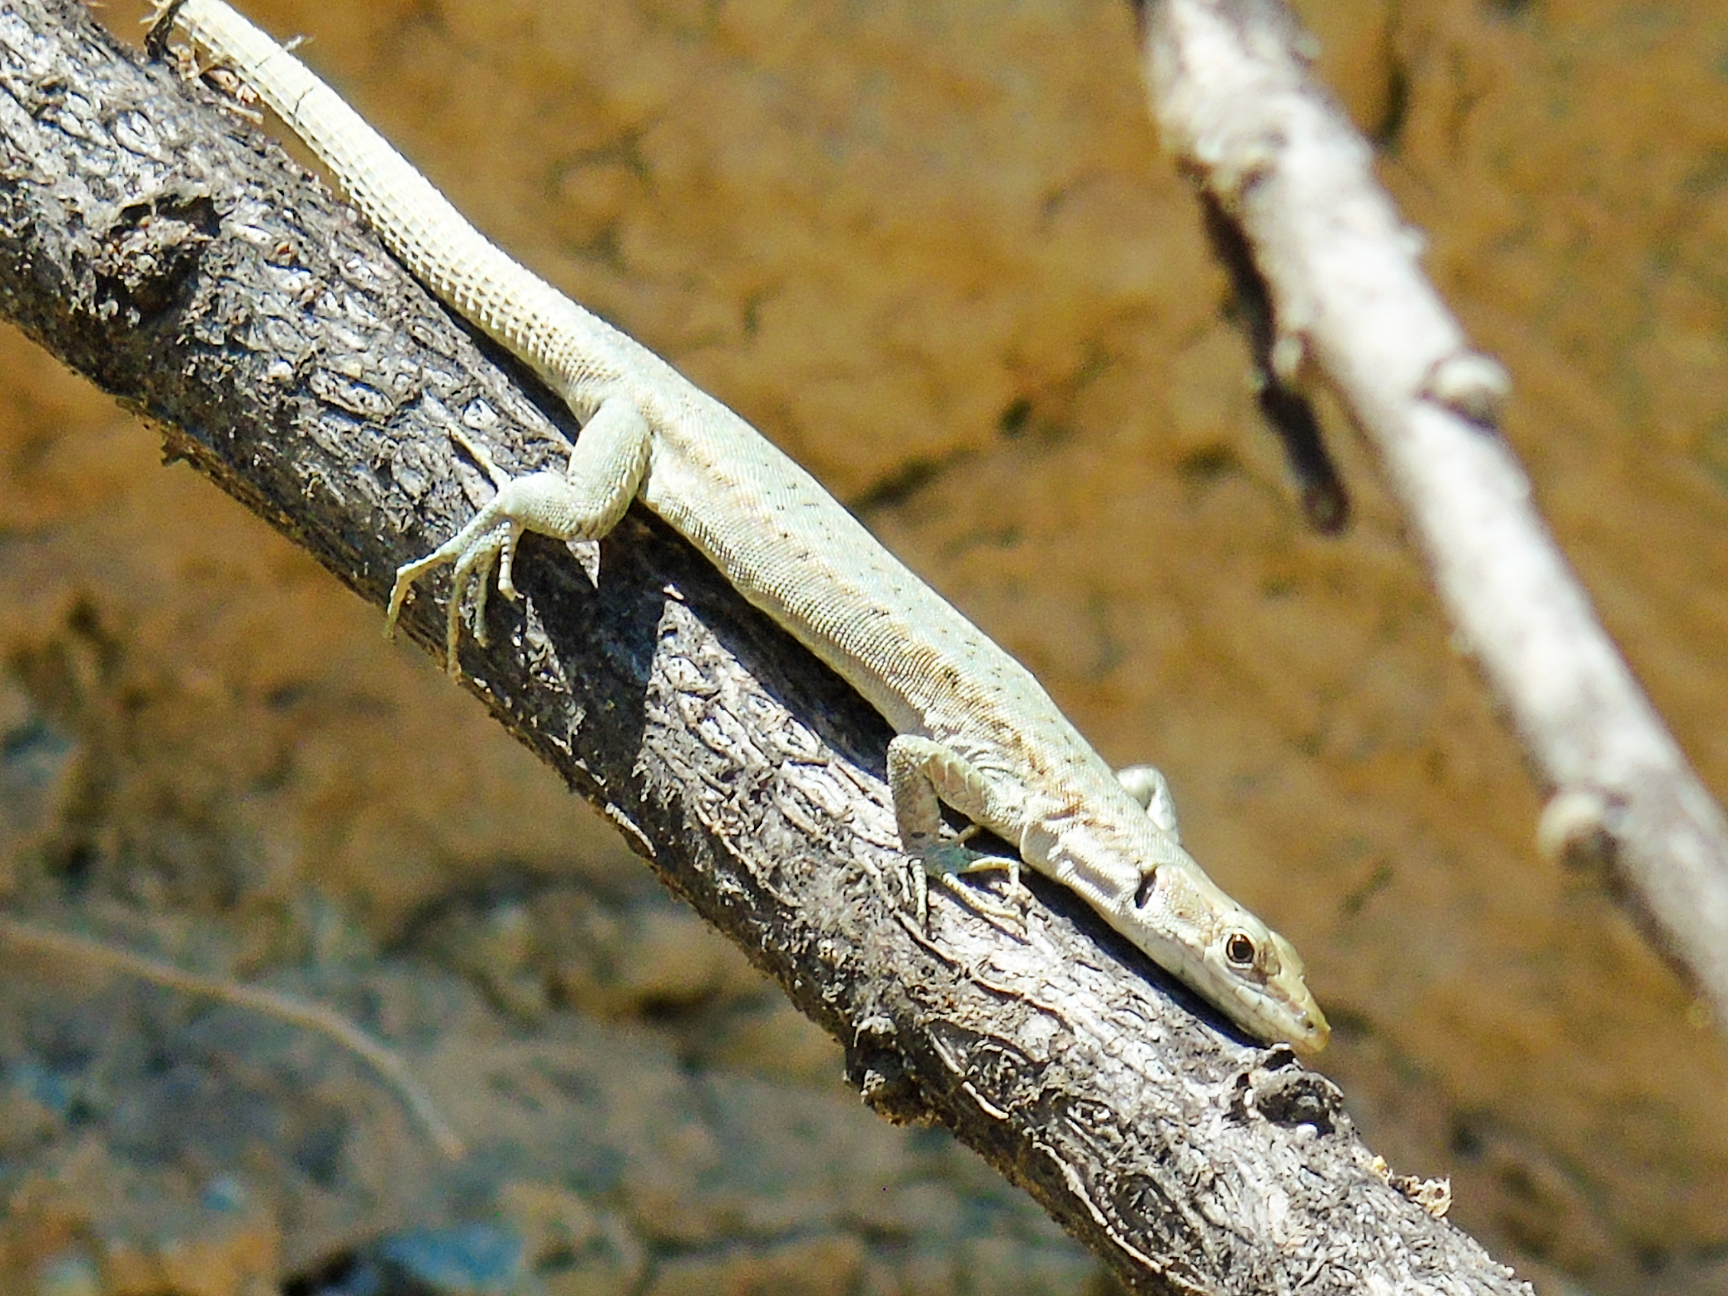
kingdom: Animalia
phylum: Chordata
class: Squamata
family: Lacertidae
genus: Darevskia
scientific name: Darevskia parvula
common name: Georgian lizard
